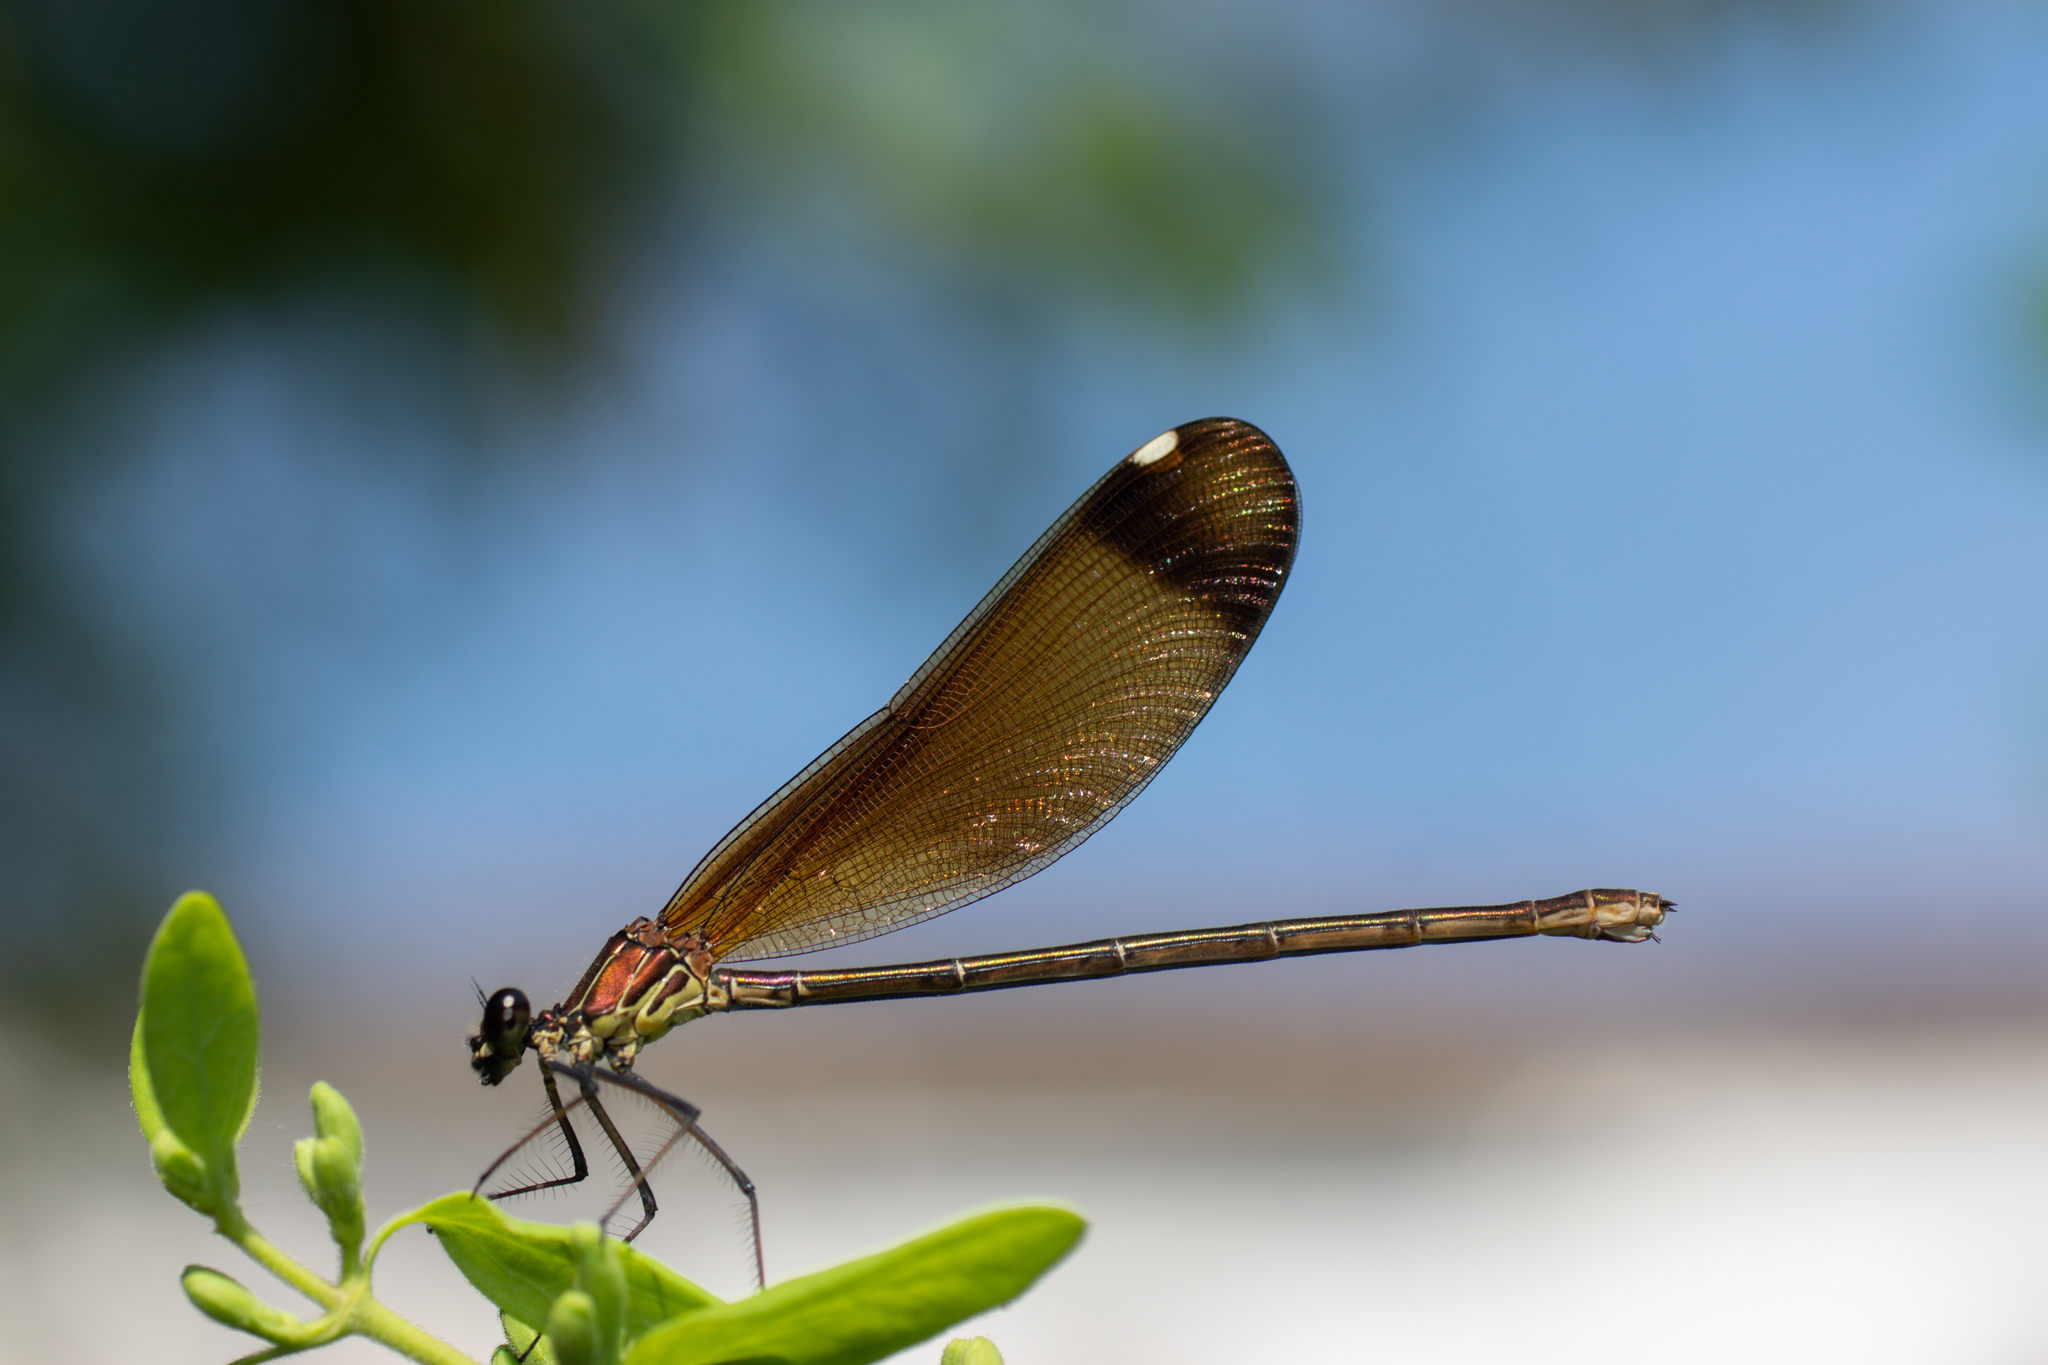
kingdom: Animalia
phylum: Arthropoda
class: Insecta
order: Odonata
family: Calopterygidae
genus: Calopteryx
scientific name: Calopteryx haemorrhoidalis
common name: Copper demoiselle
